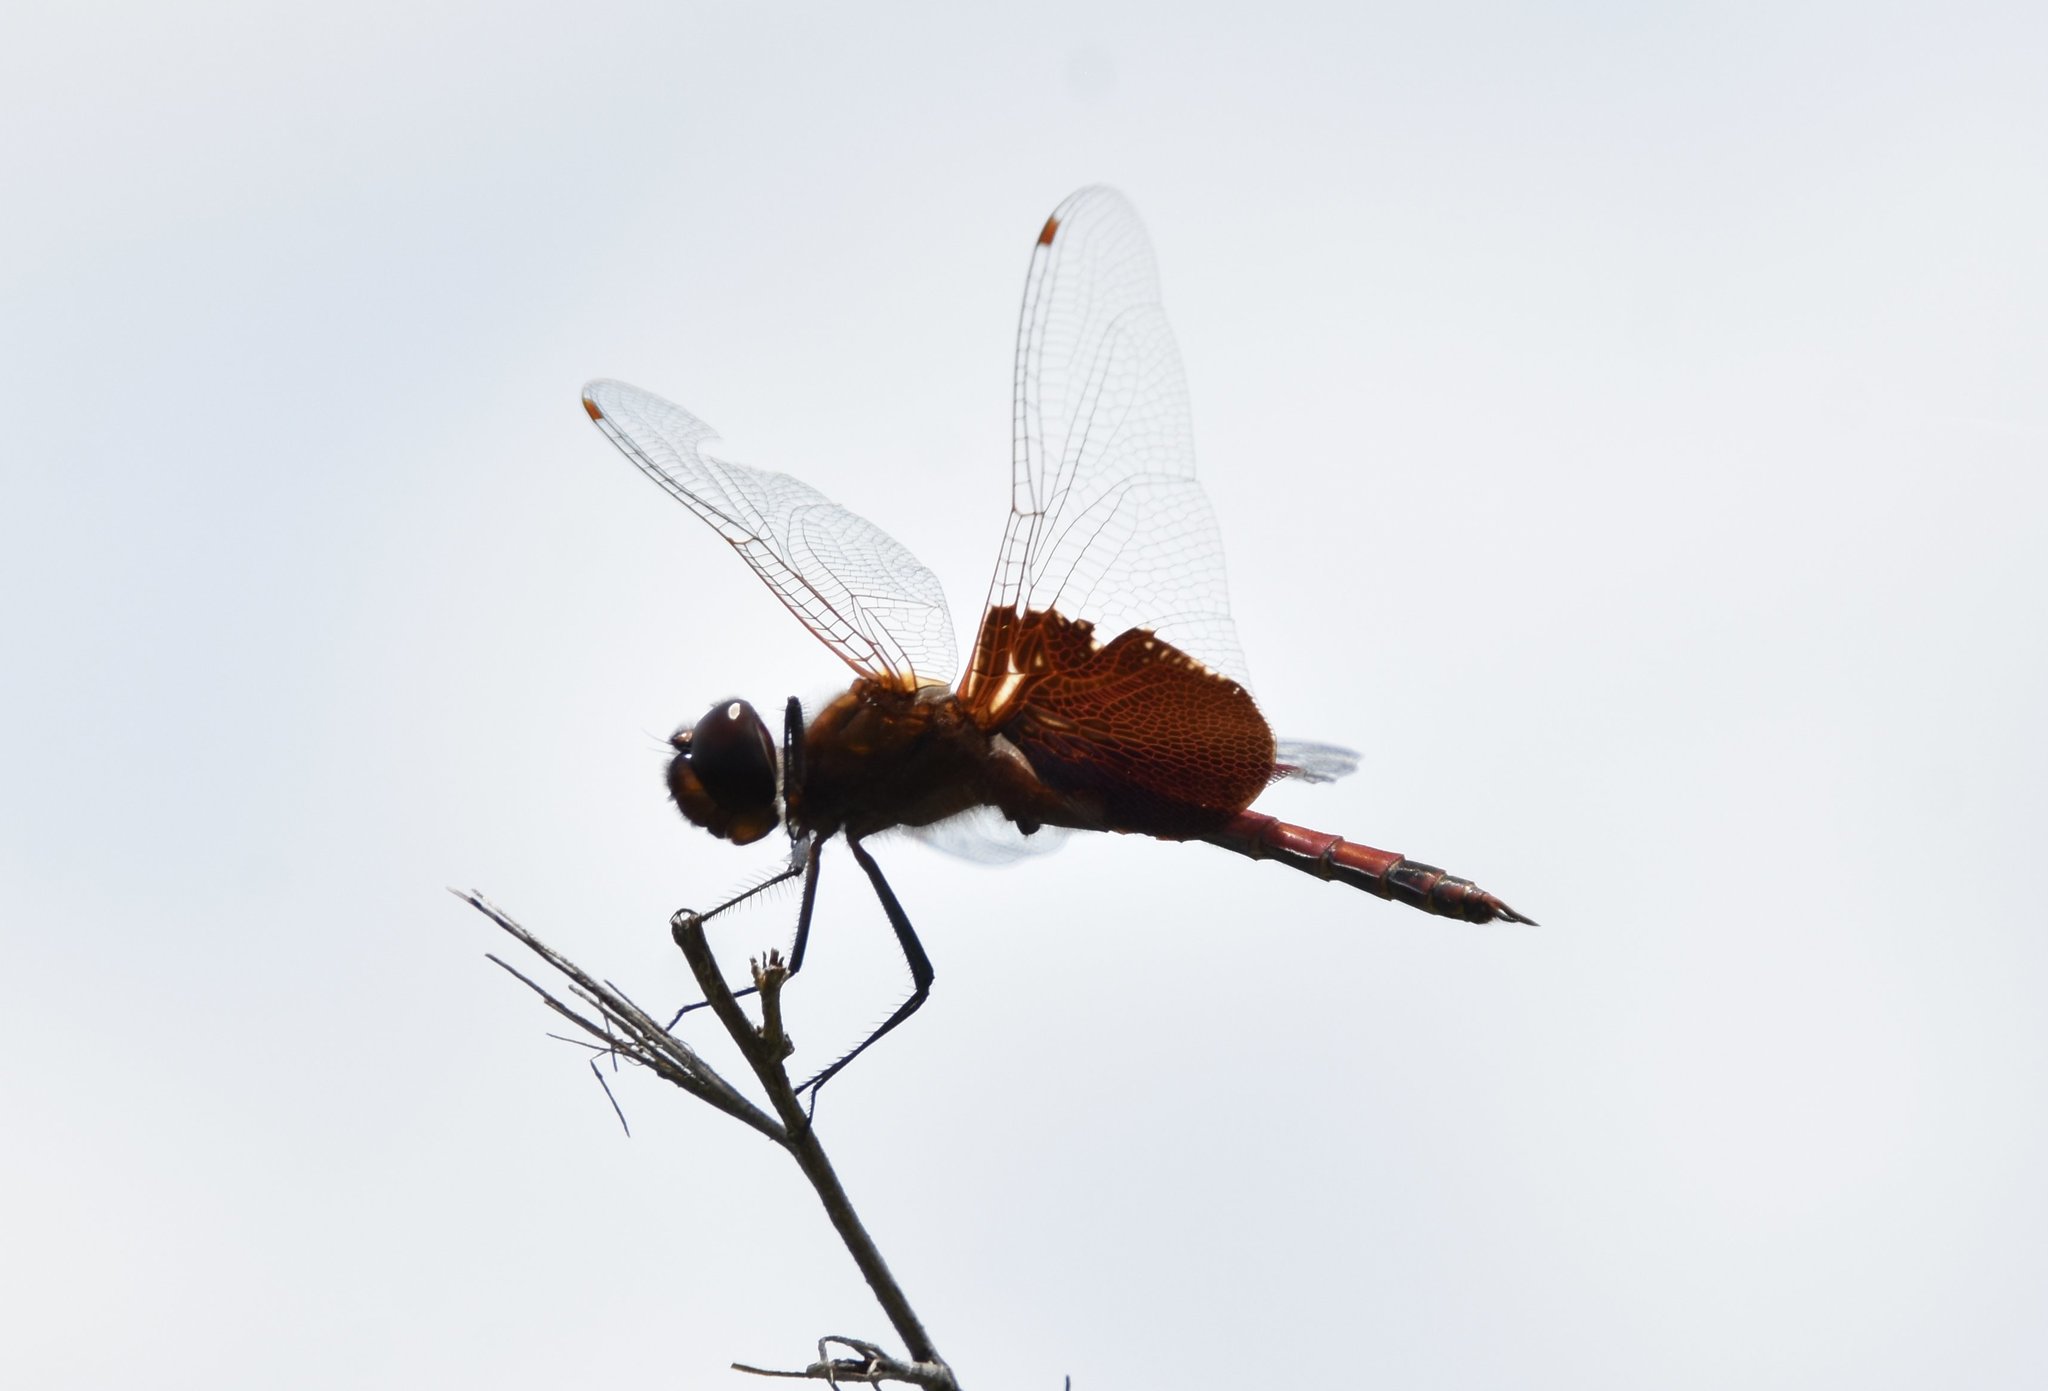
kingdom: Animalia
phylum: Arthropoda
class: Insecta
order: Odonata
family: Libellulidae
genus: Tramea
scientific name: Tramea carolina
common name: Carolina saddlebags
